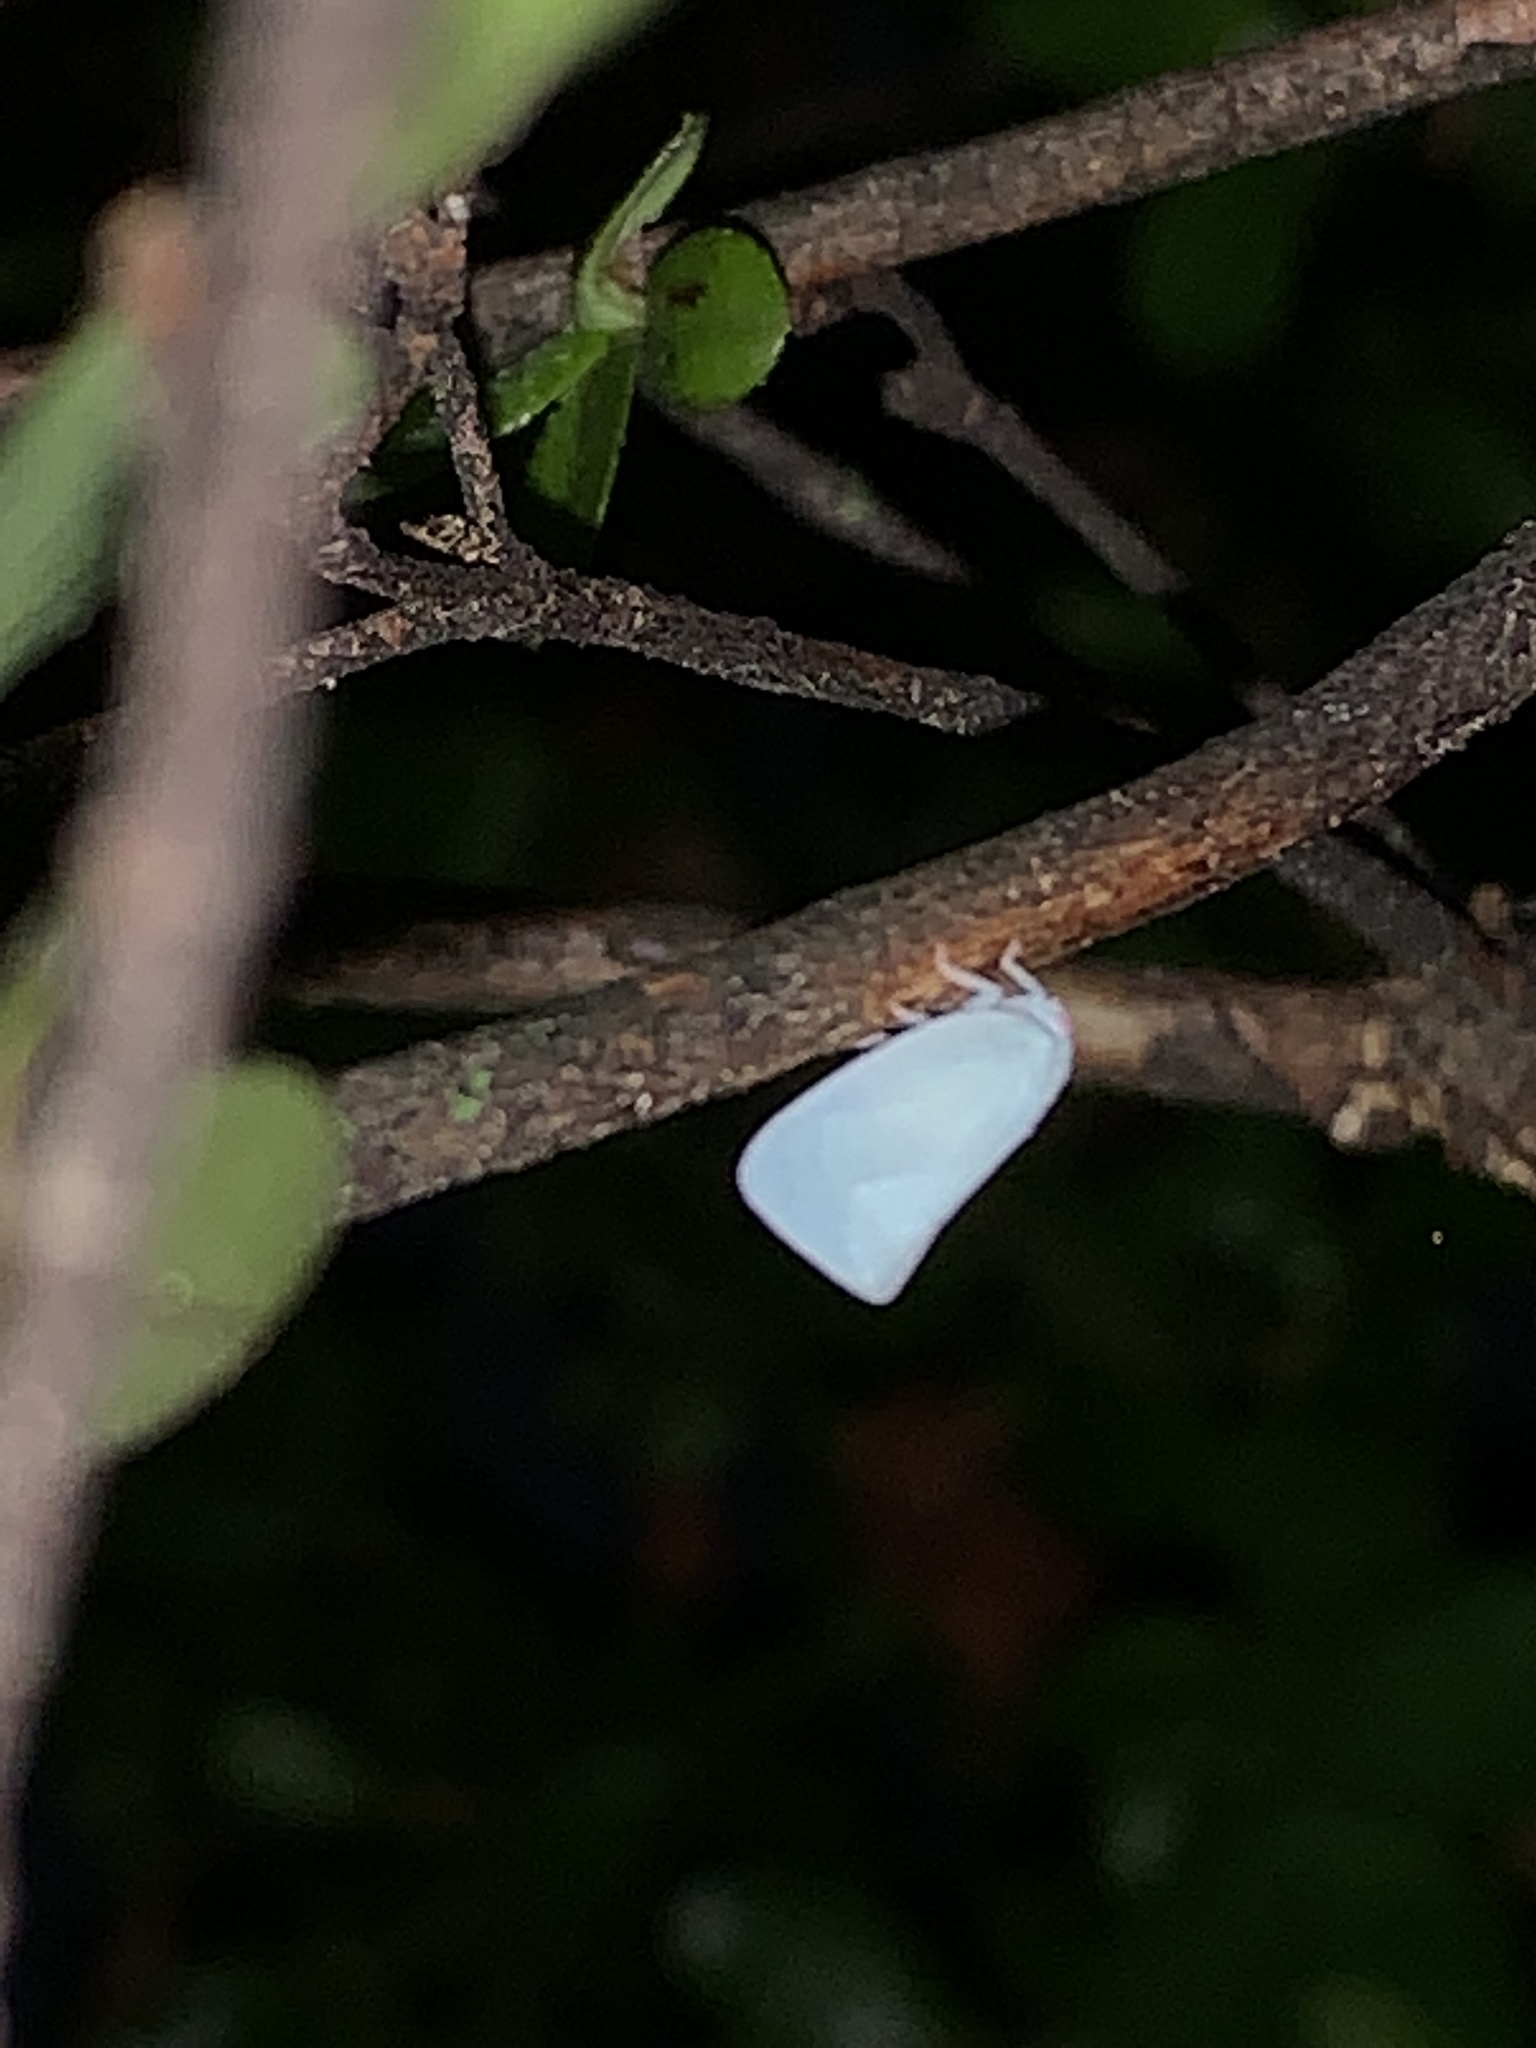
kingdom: Animalia
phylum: Arthropoda
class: Insecta
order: Hemiptera
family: Flatidae
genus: Flatormenis
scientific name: Flatormenis proxima
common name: Northern flatid planthopper
